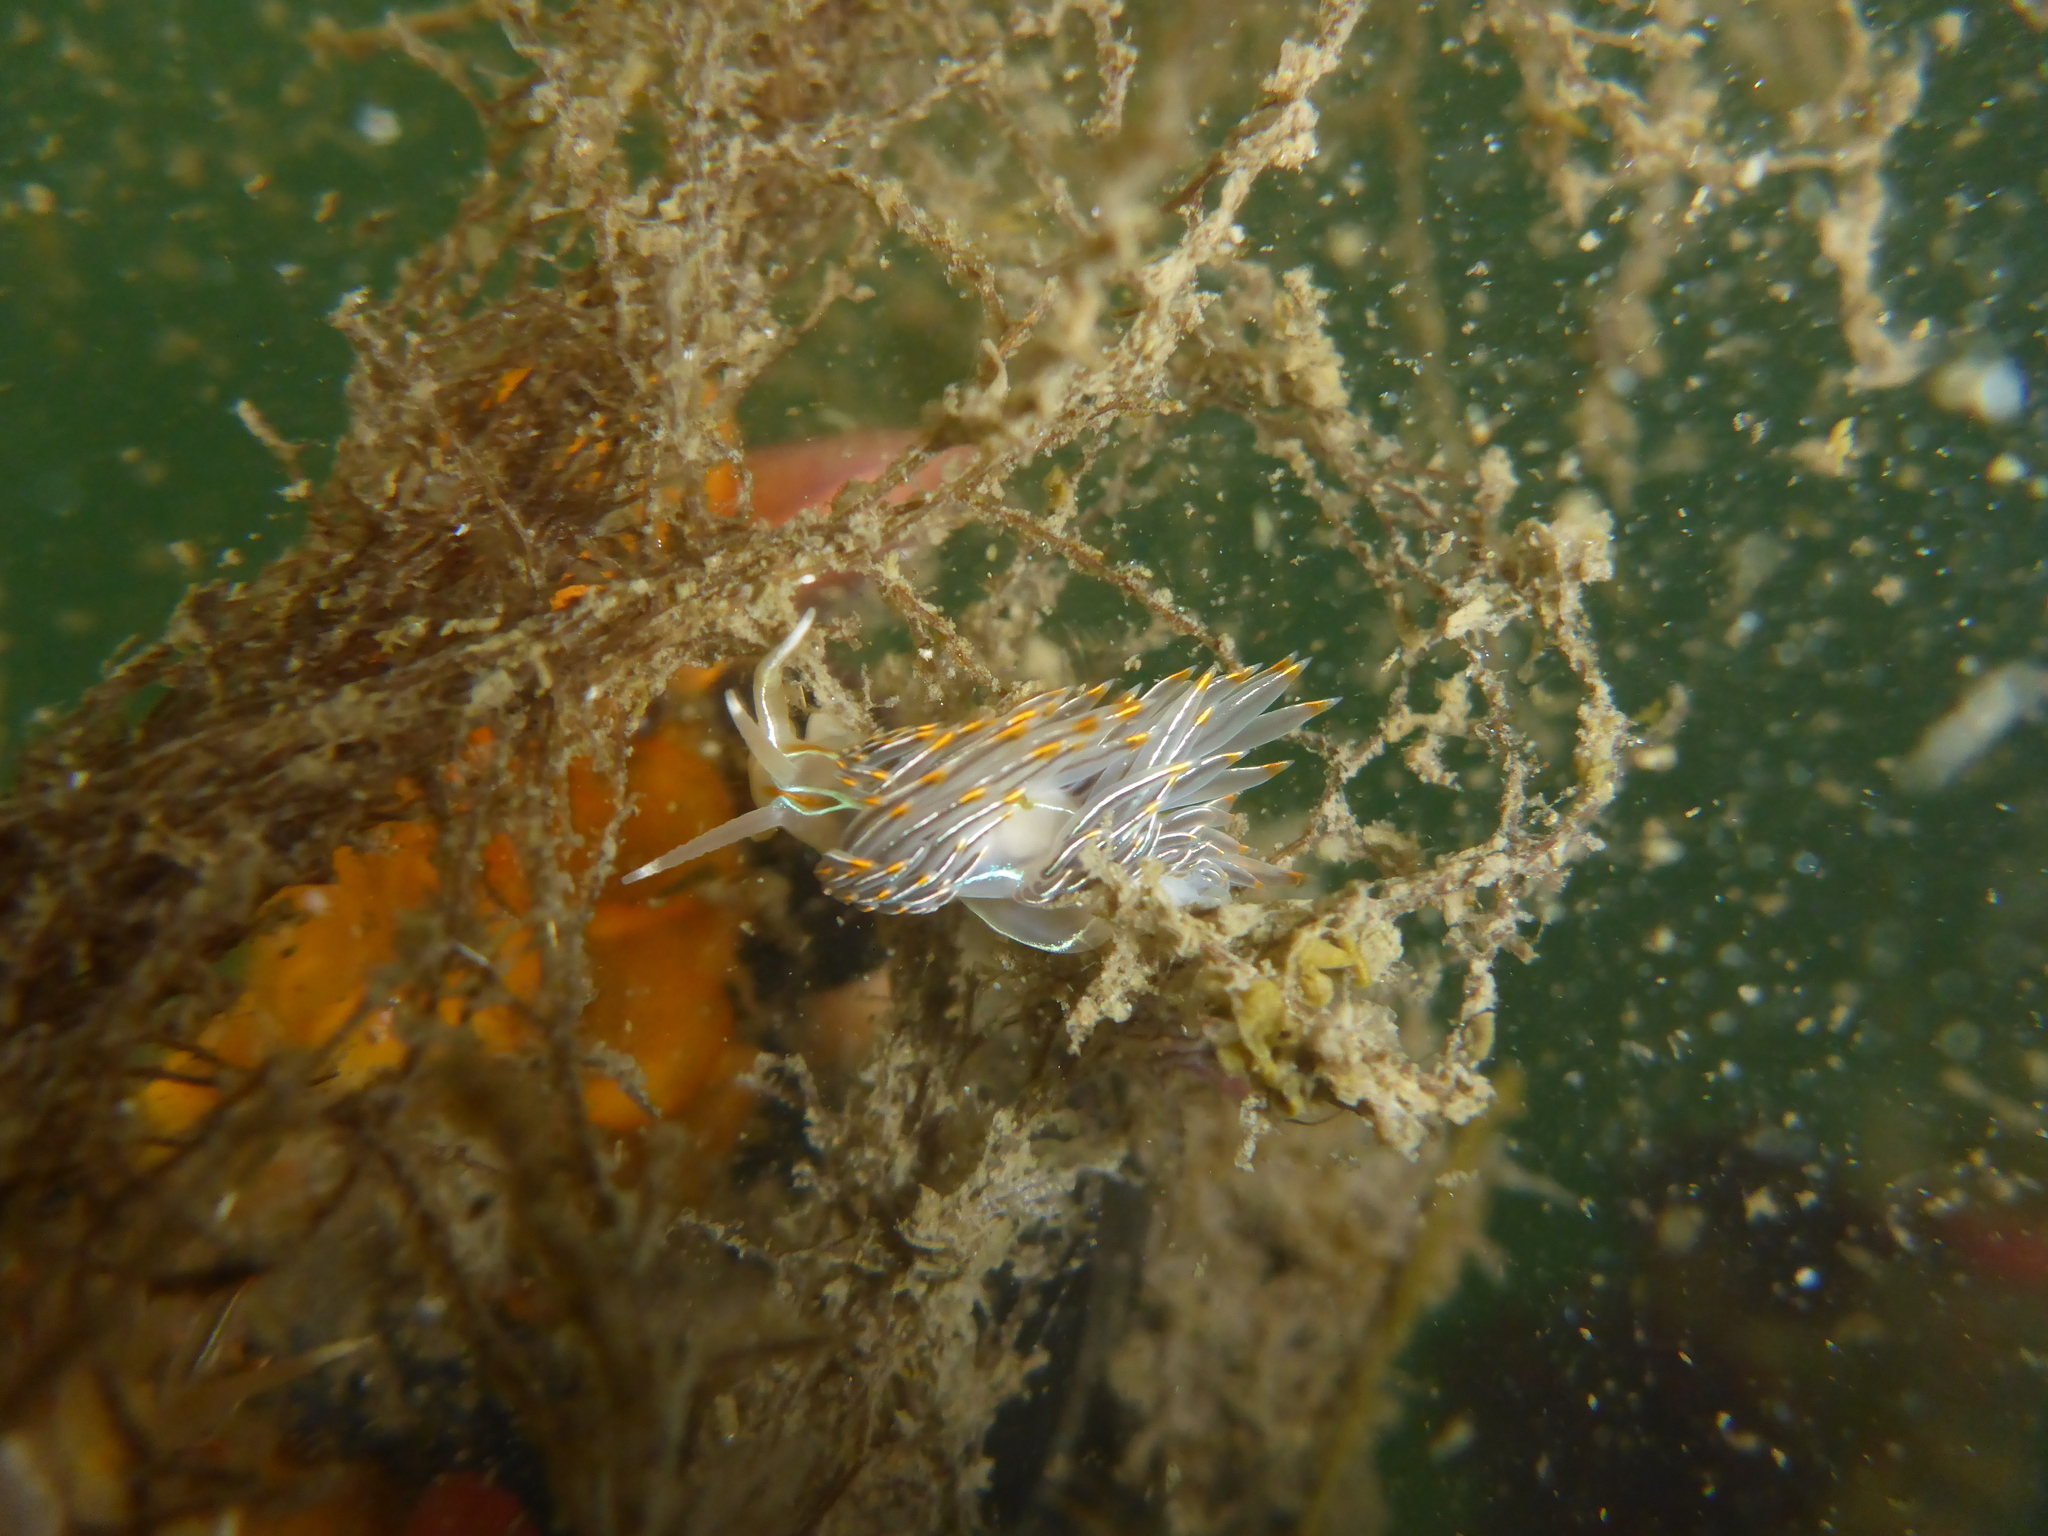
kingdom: Animalia
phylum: Mollusca
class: Gastropoda
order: Nudibranchia
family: Myrrhinidae
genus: Hermissenda
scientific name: Hermissenda crassicornis
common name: Hermissenda
